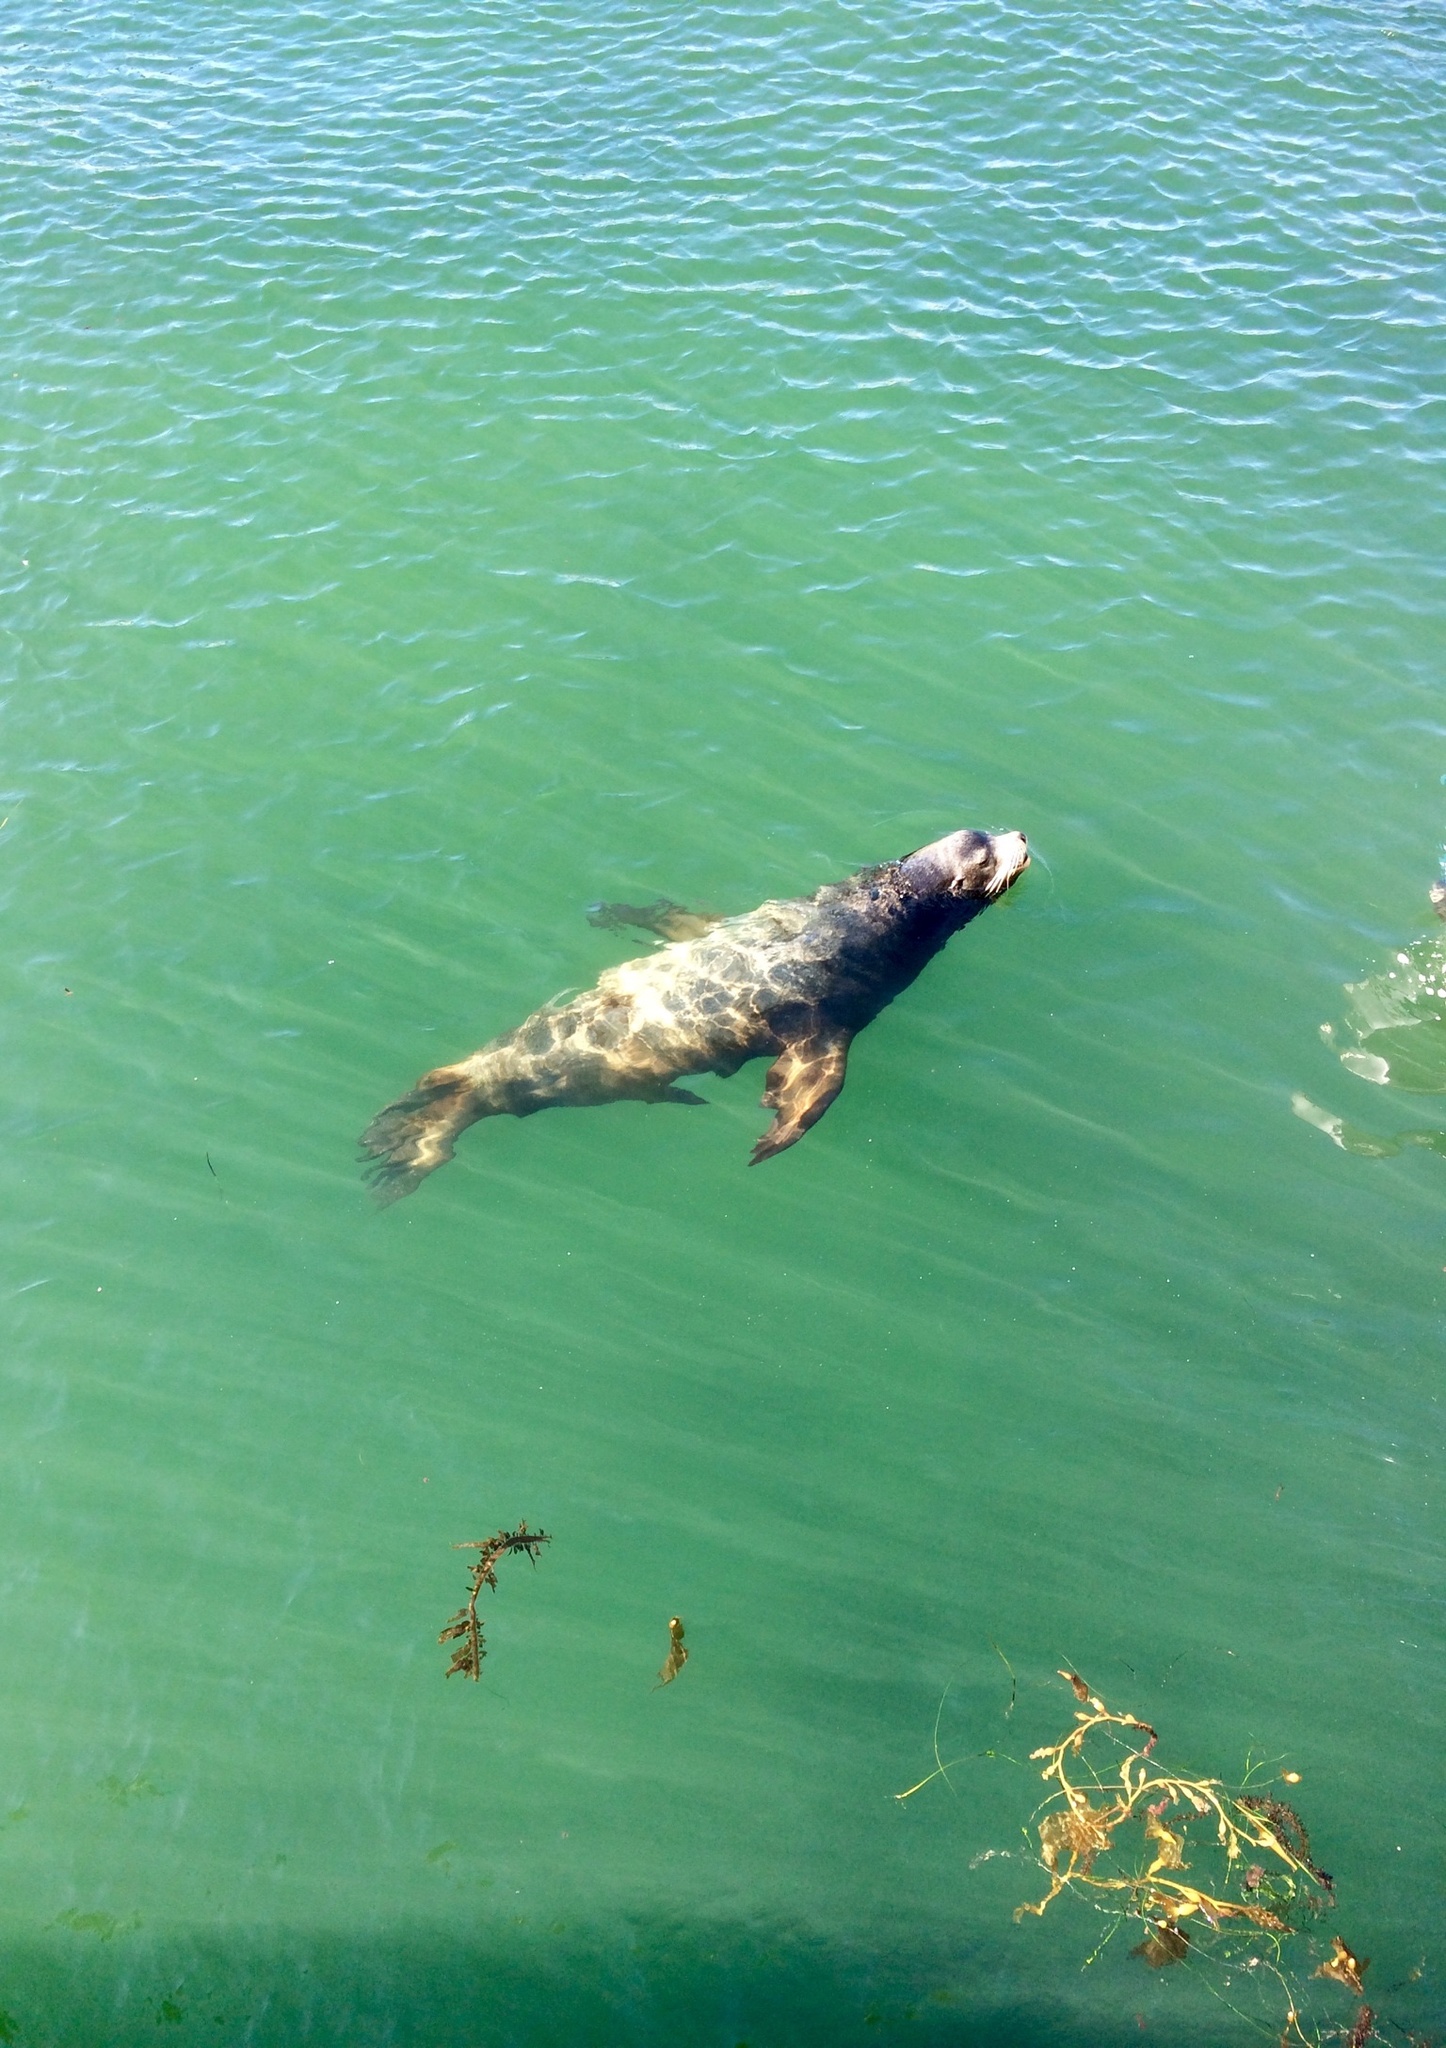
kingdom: Animalia
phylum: Chordata
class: Mammalia
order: Carnivora
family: Otariidae
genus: Zalophus
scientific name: Zalophus californianus
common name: California sea lion
